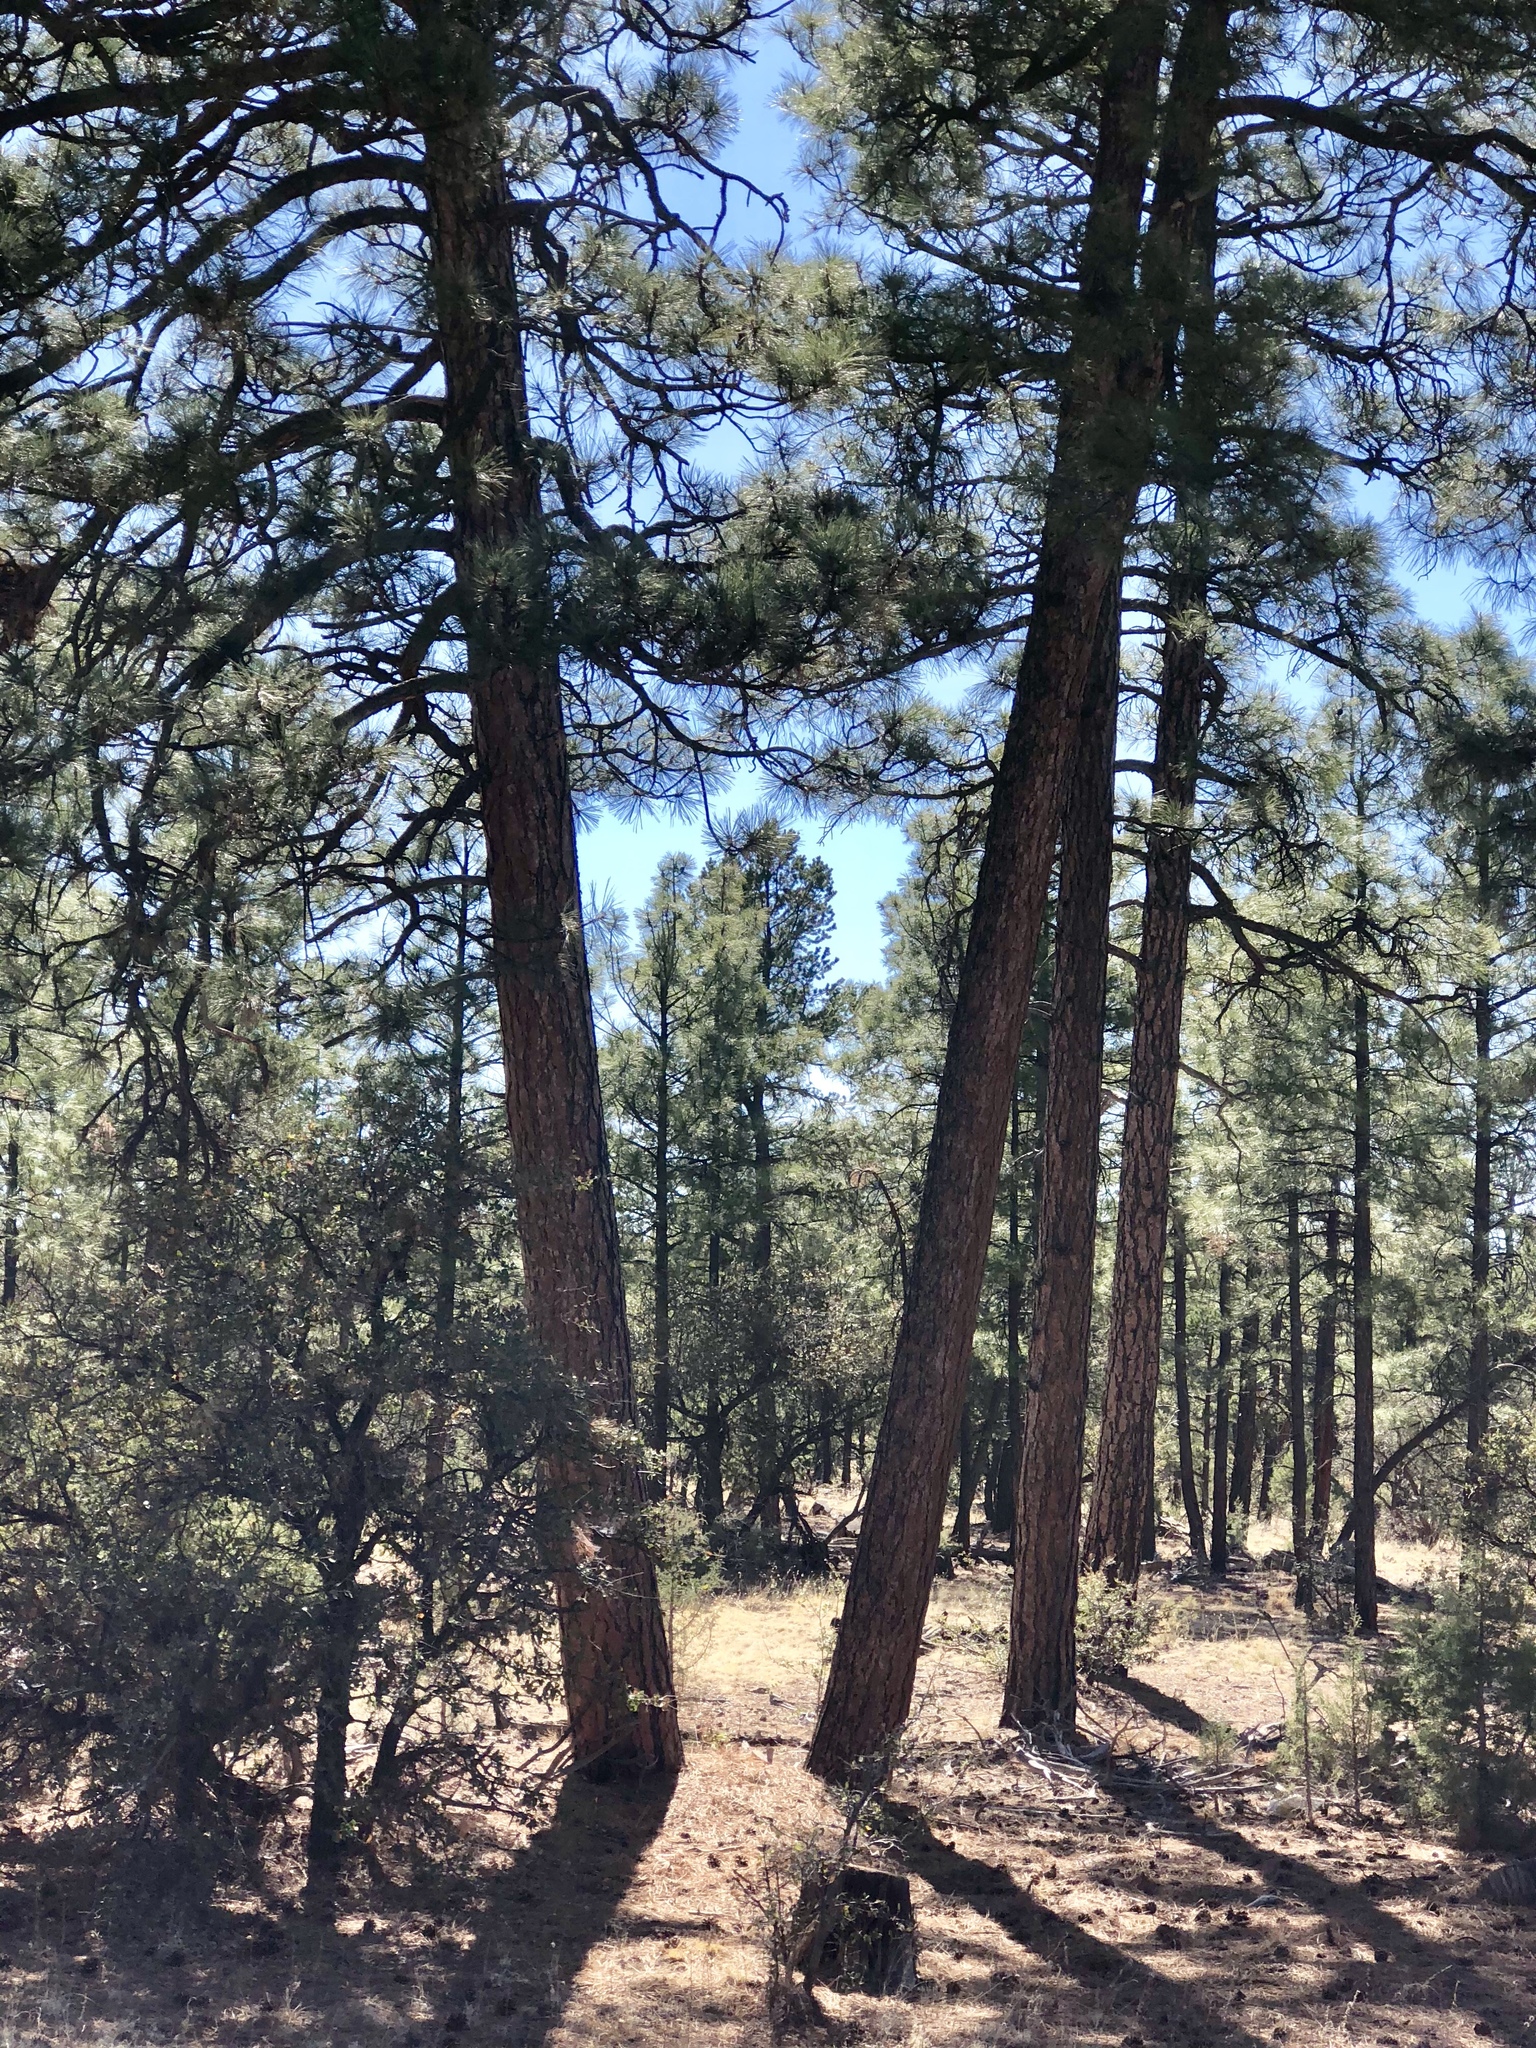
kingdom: Plantae
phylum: Tracheophyta
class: Pinopsida
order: Pinales
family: Pinaceae
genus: Pinus
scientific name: Pinus ponderosa
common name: Western yellow-pine
